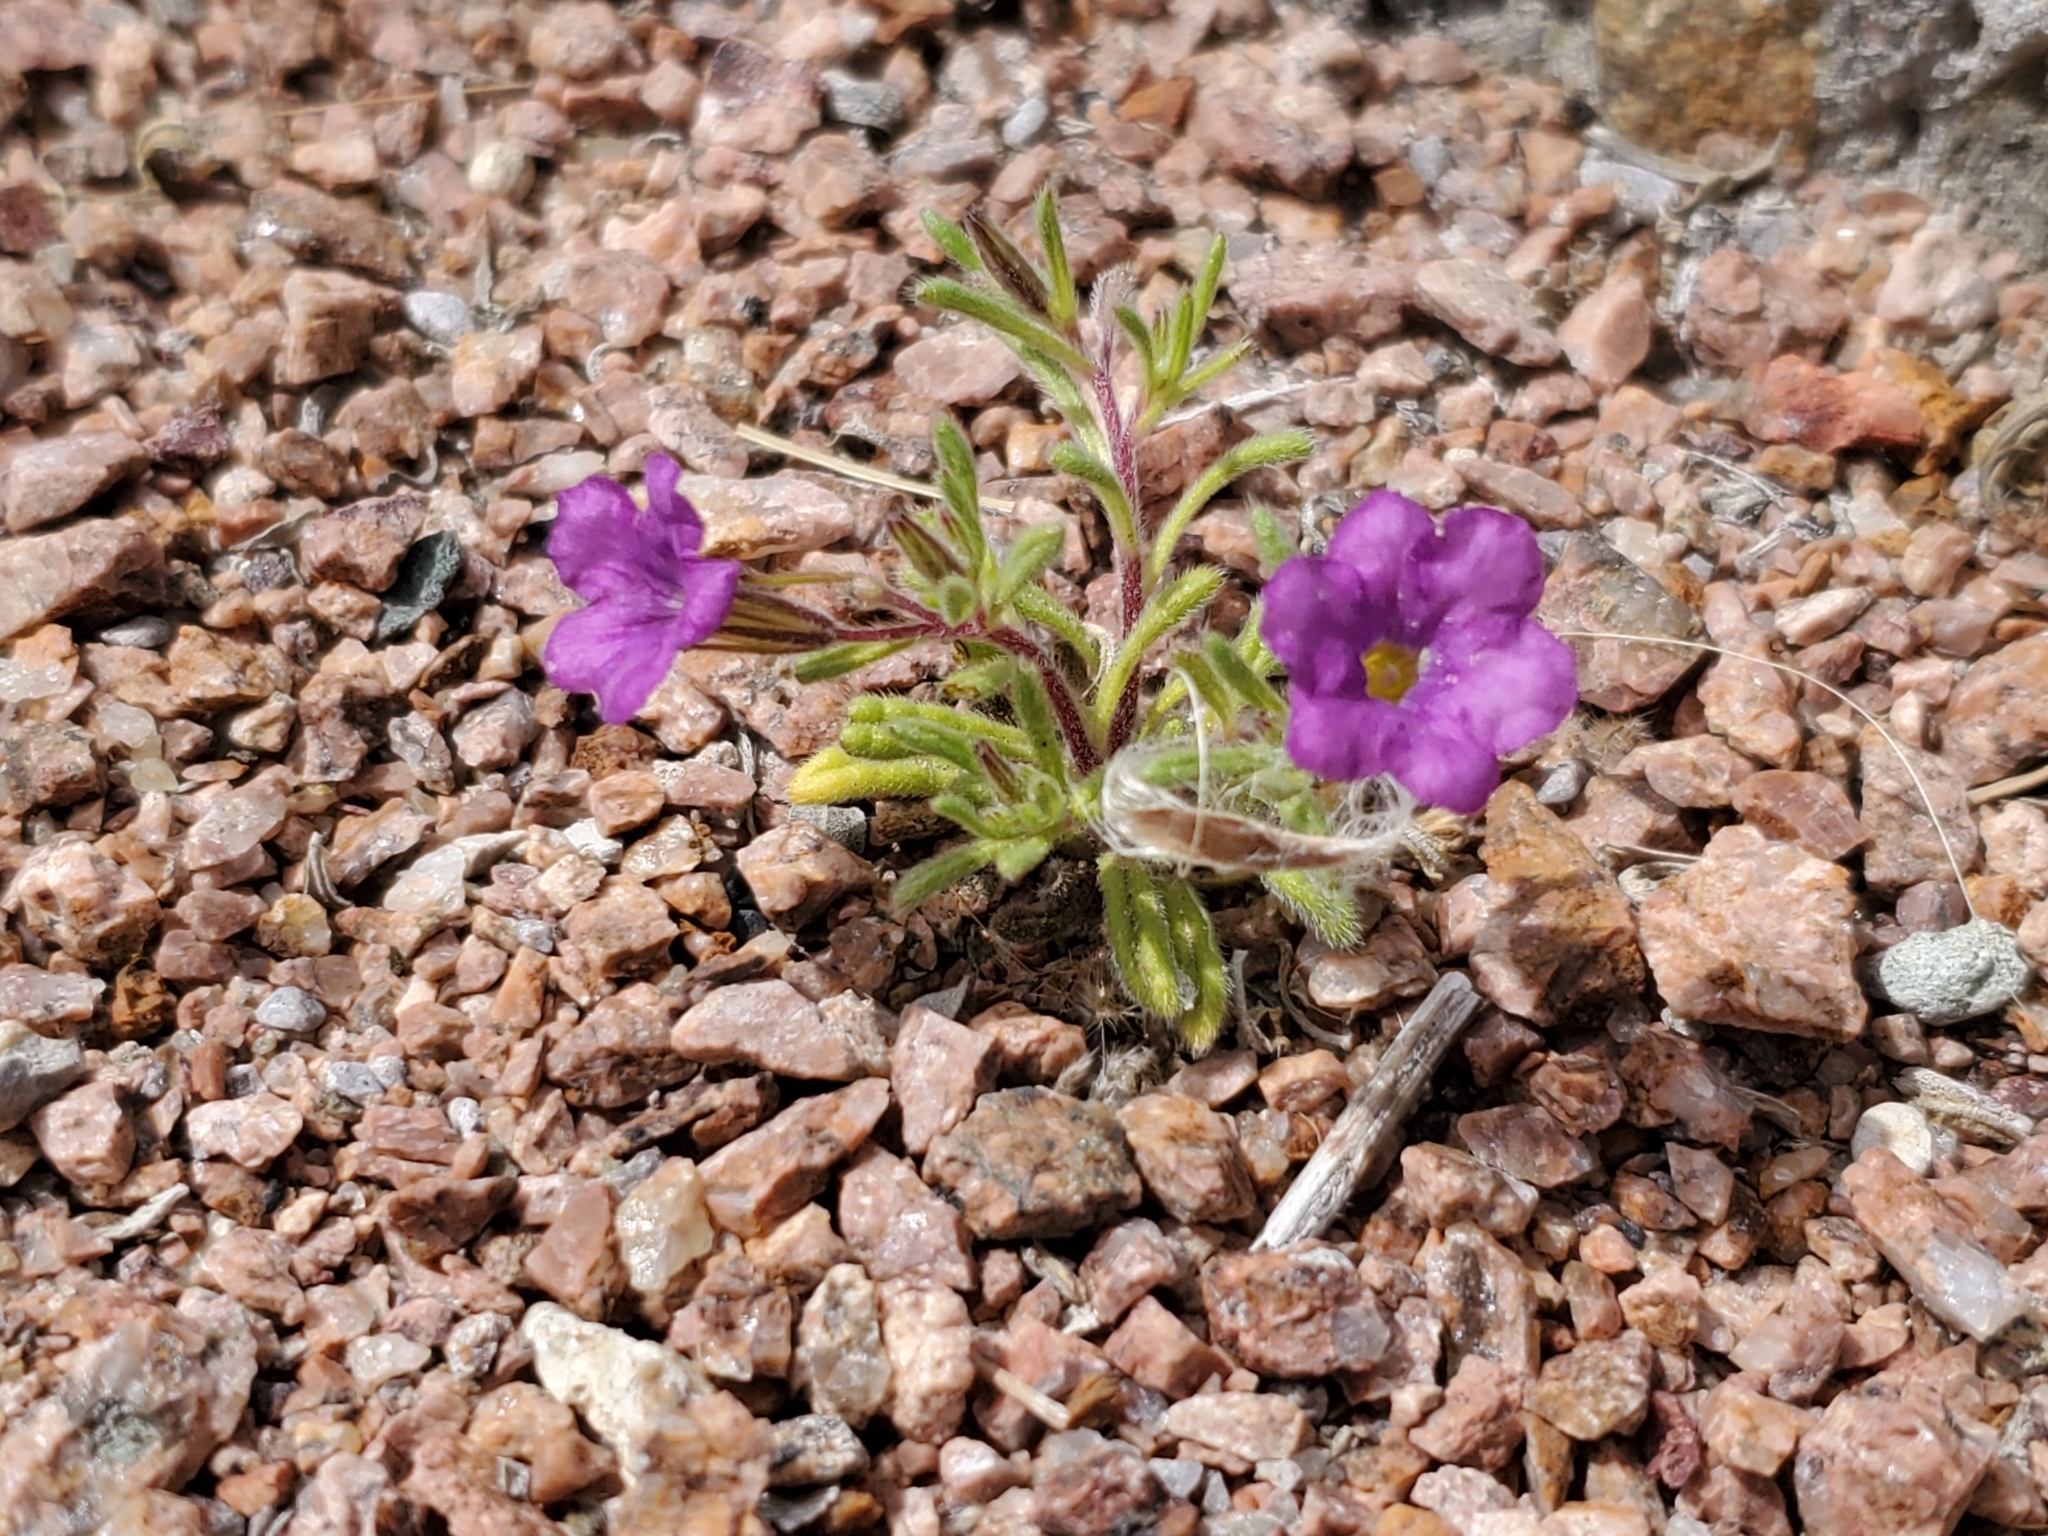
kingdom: Plantae
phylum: Tracheophyta
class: Magnoliopsida
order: Boraginales
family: Namaceae
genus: Nama
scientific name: Nama hispida
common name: Bristly nama
